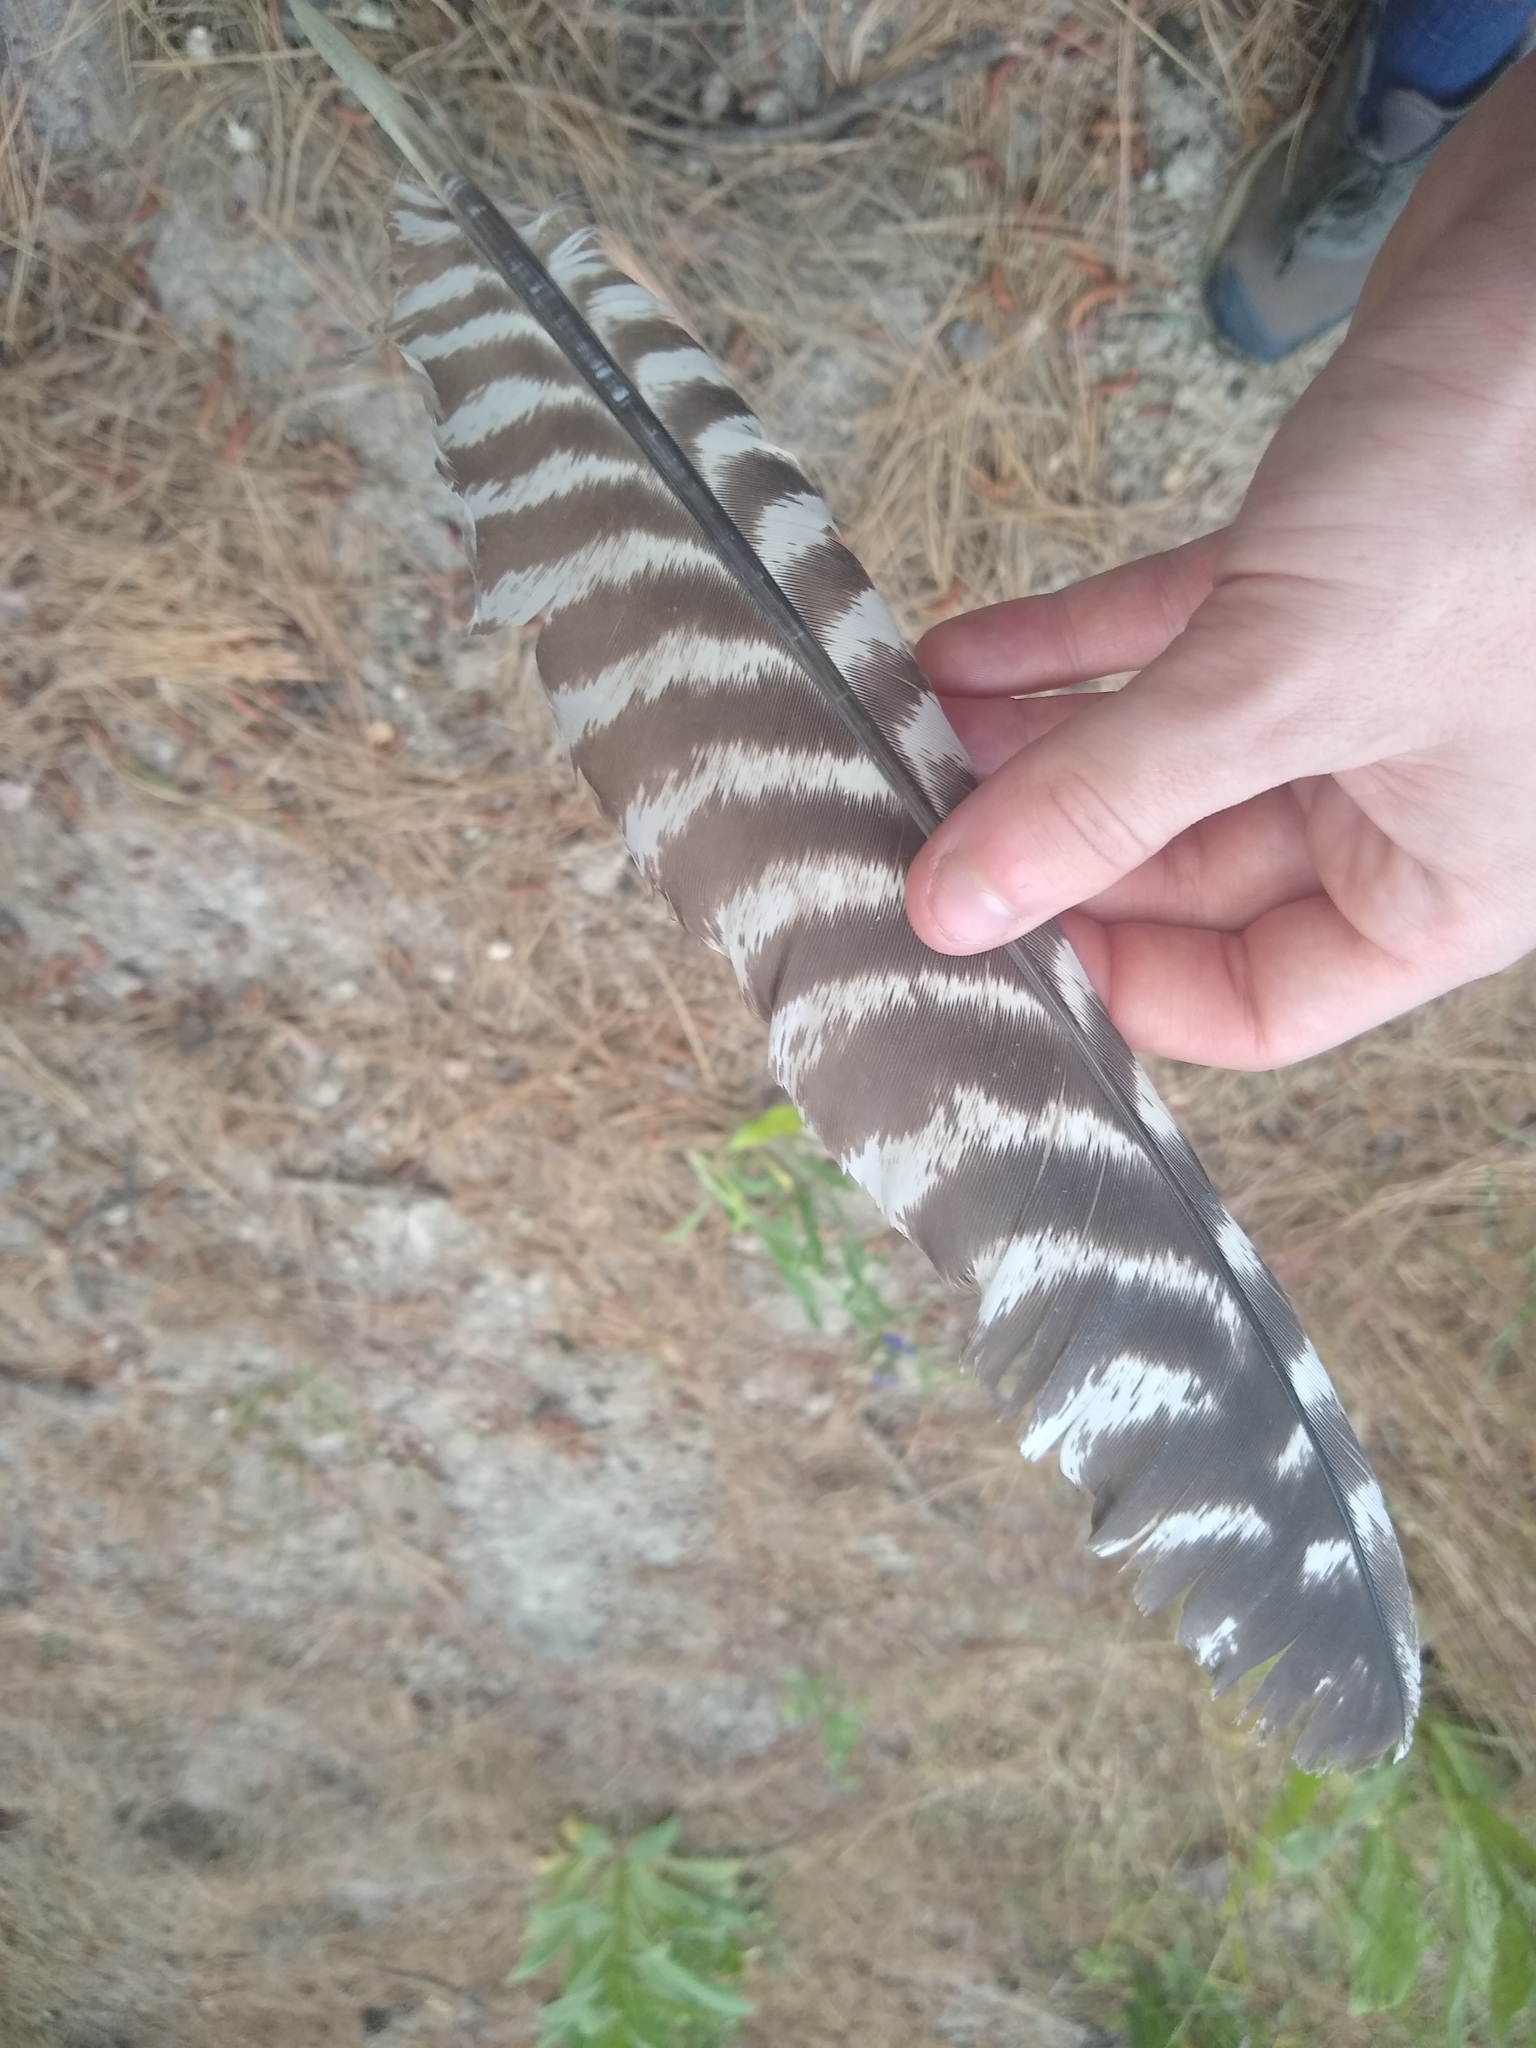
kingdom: Animalia
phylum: Chordata
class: Aves
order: Galliformes
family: Phasianidae
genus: Meleagris
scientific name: Meleagris gallopavo
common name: Wild turkey
